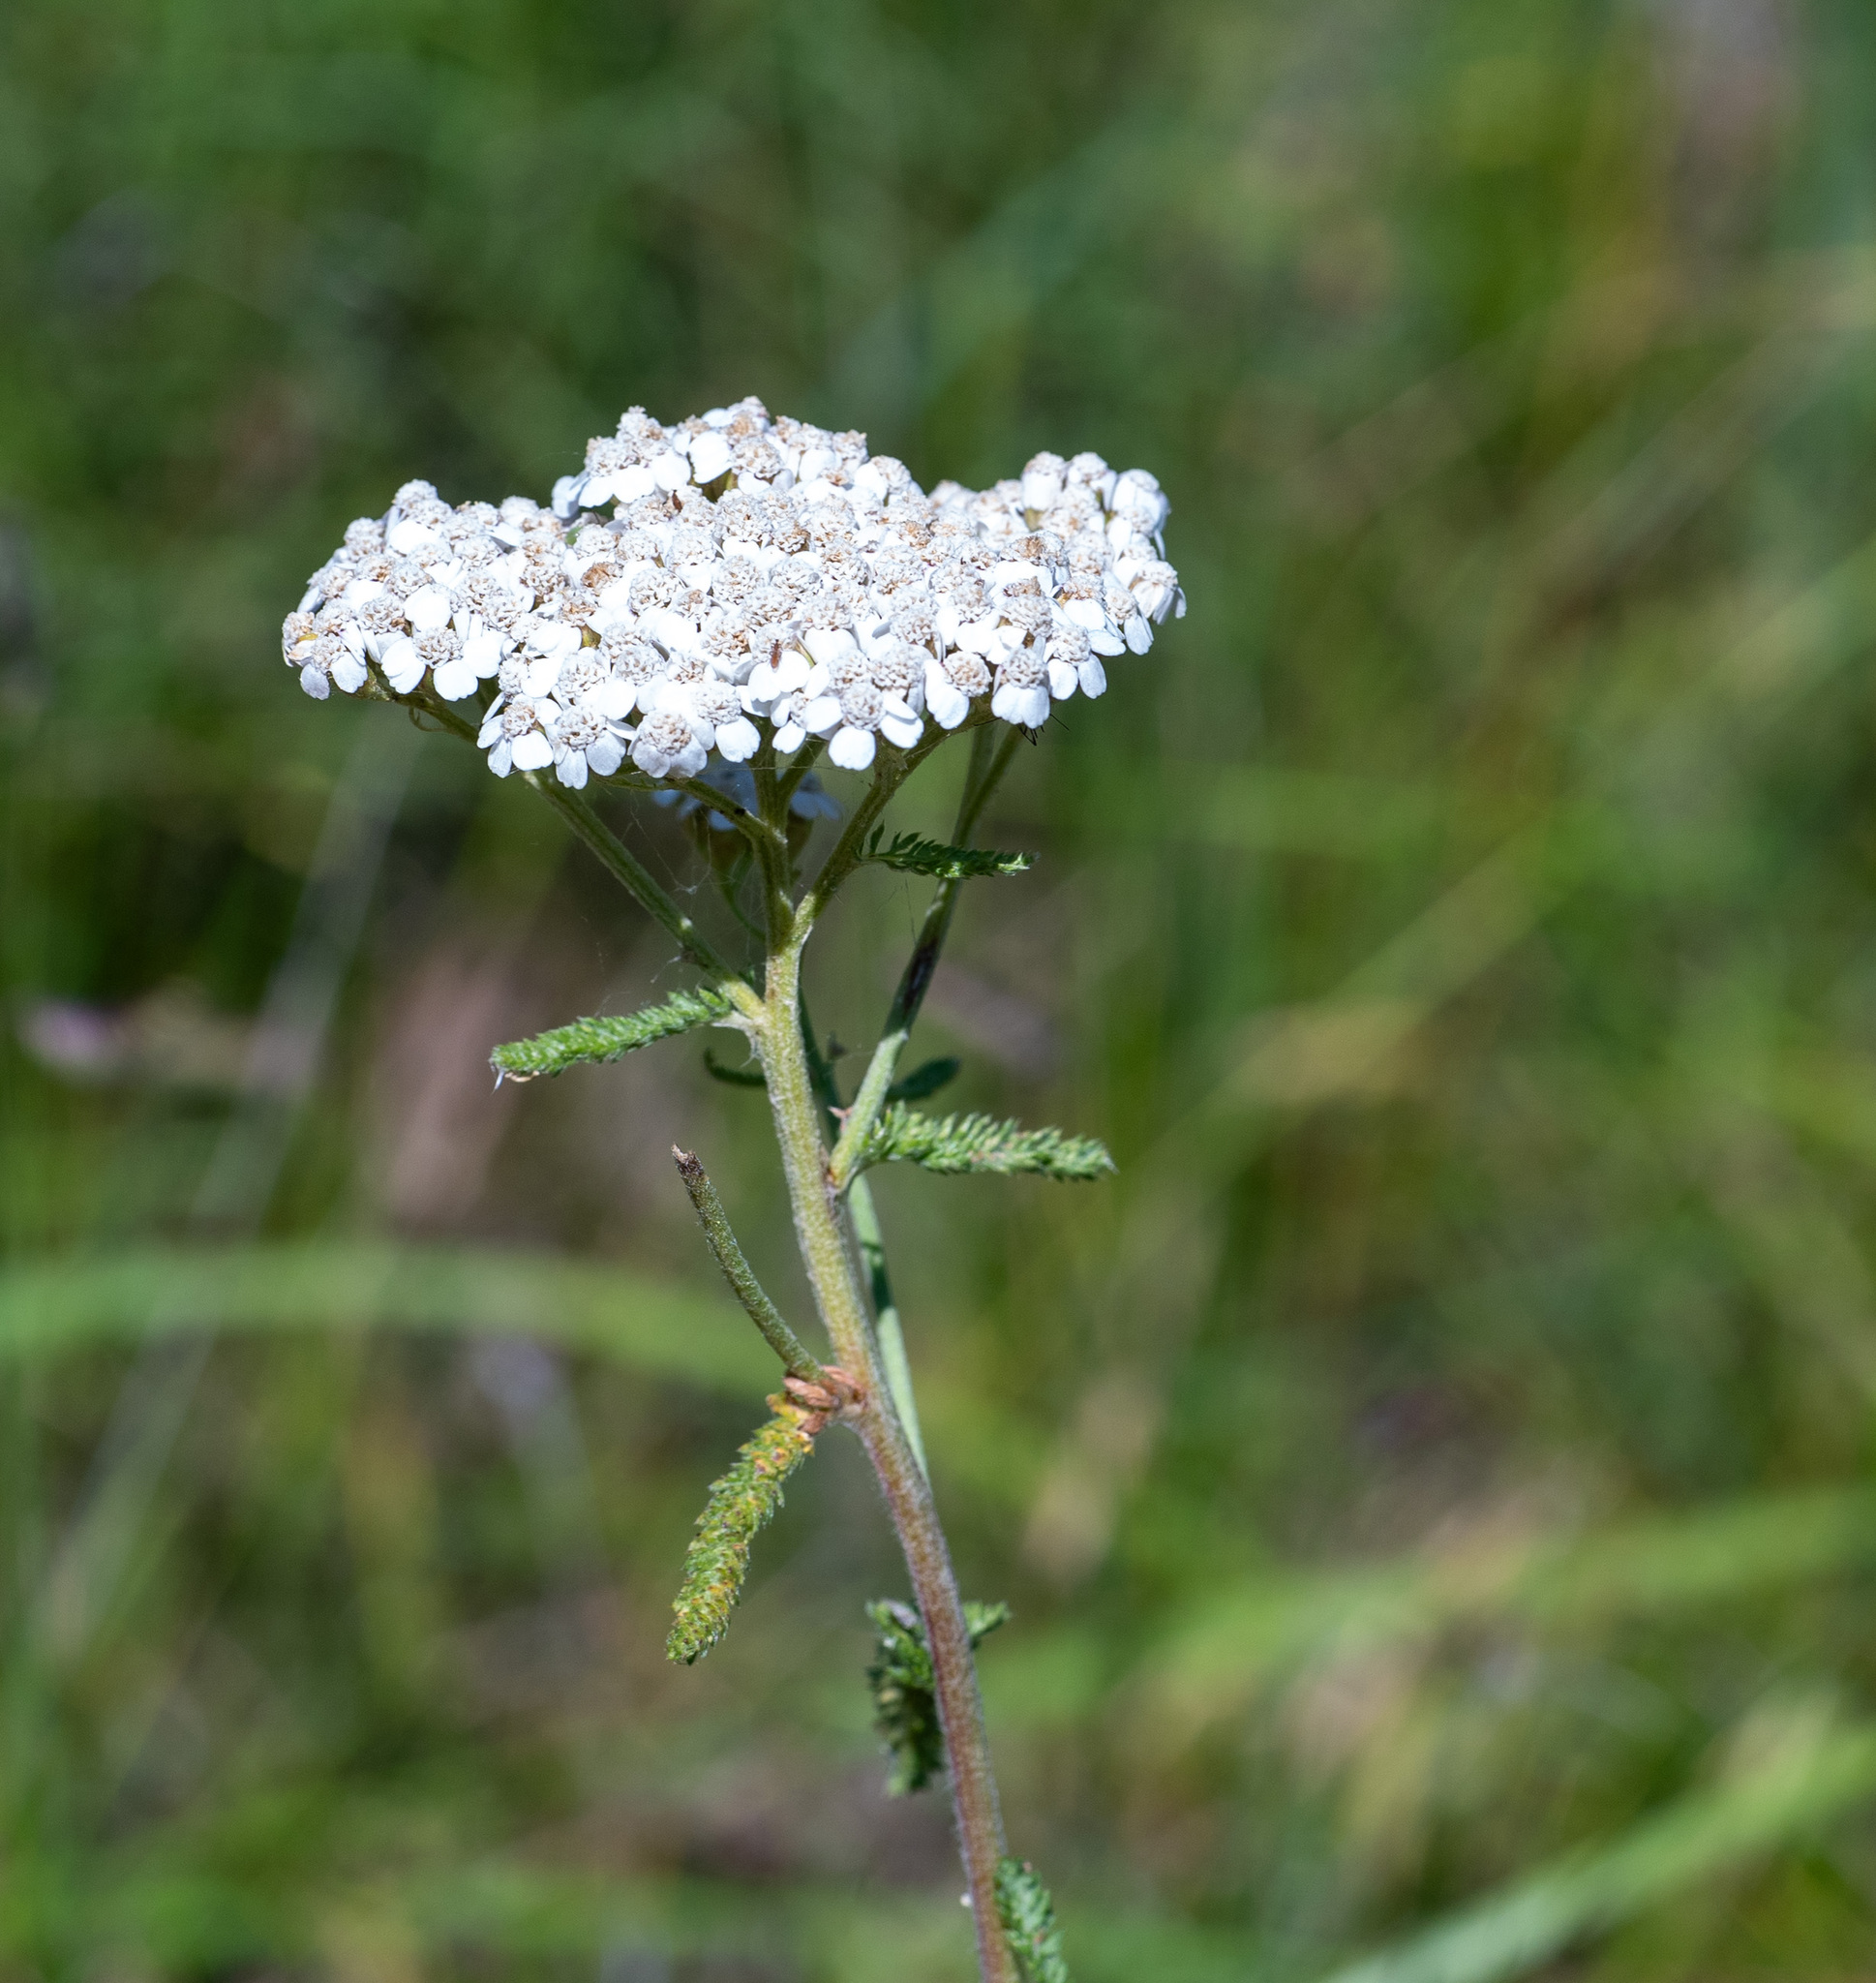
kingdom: Plantae
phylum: Tracheophyta
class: Magnoliopsida
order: Asterales
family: Asteraceae
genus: Achillea
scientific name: Achillea millefolium
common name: Yarrow
